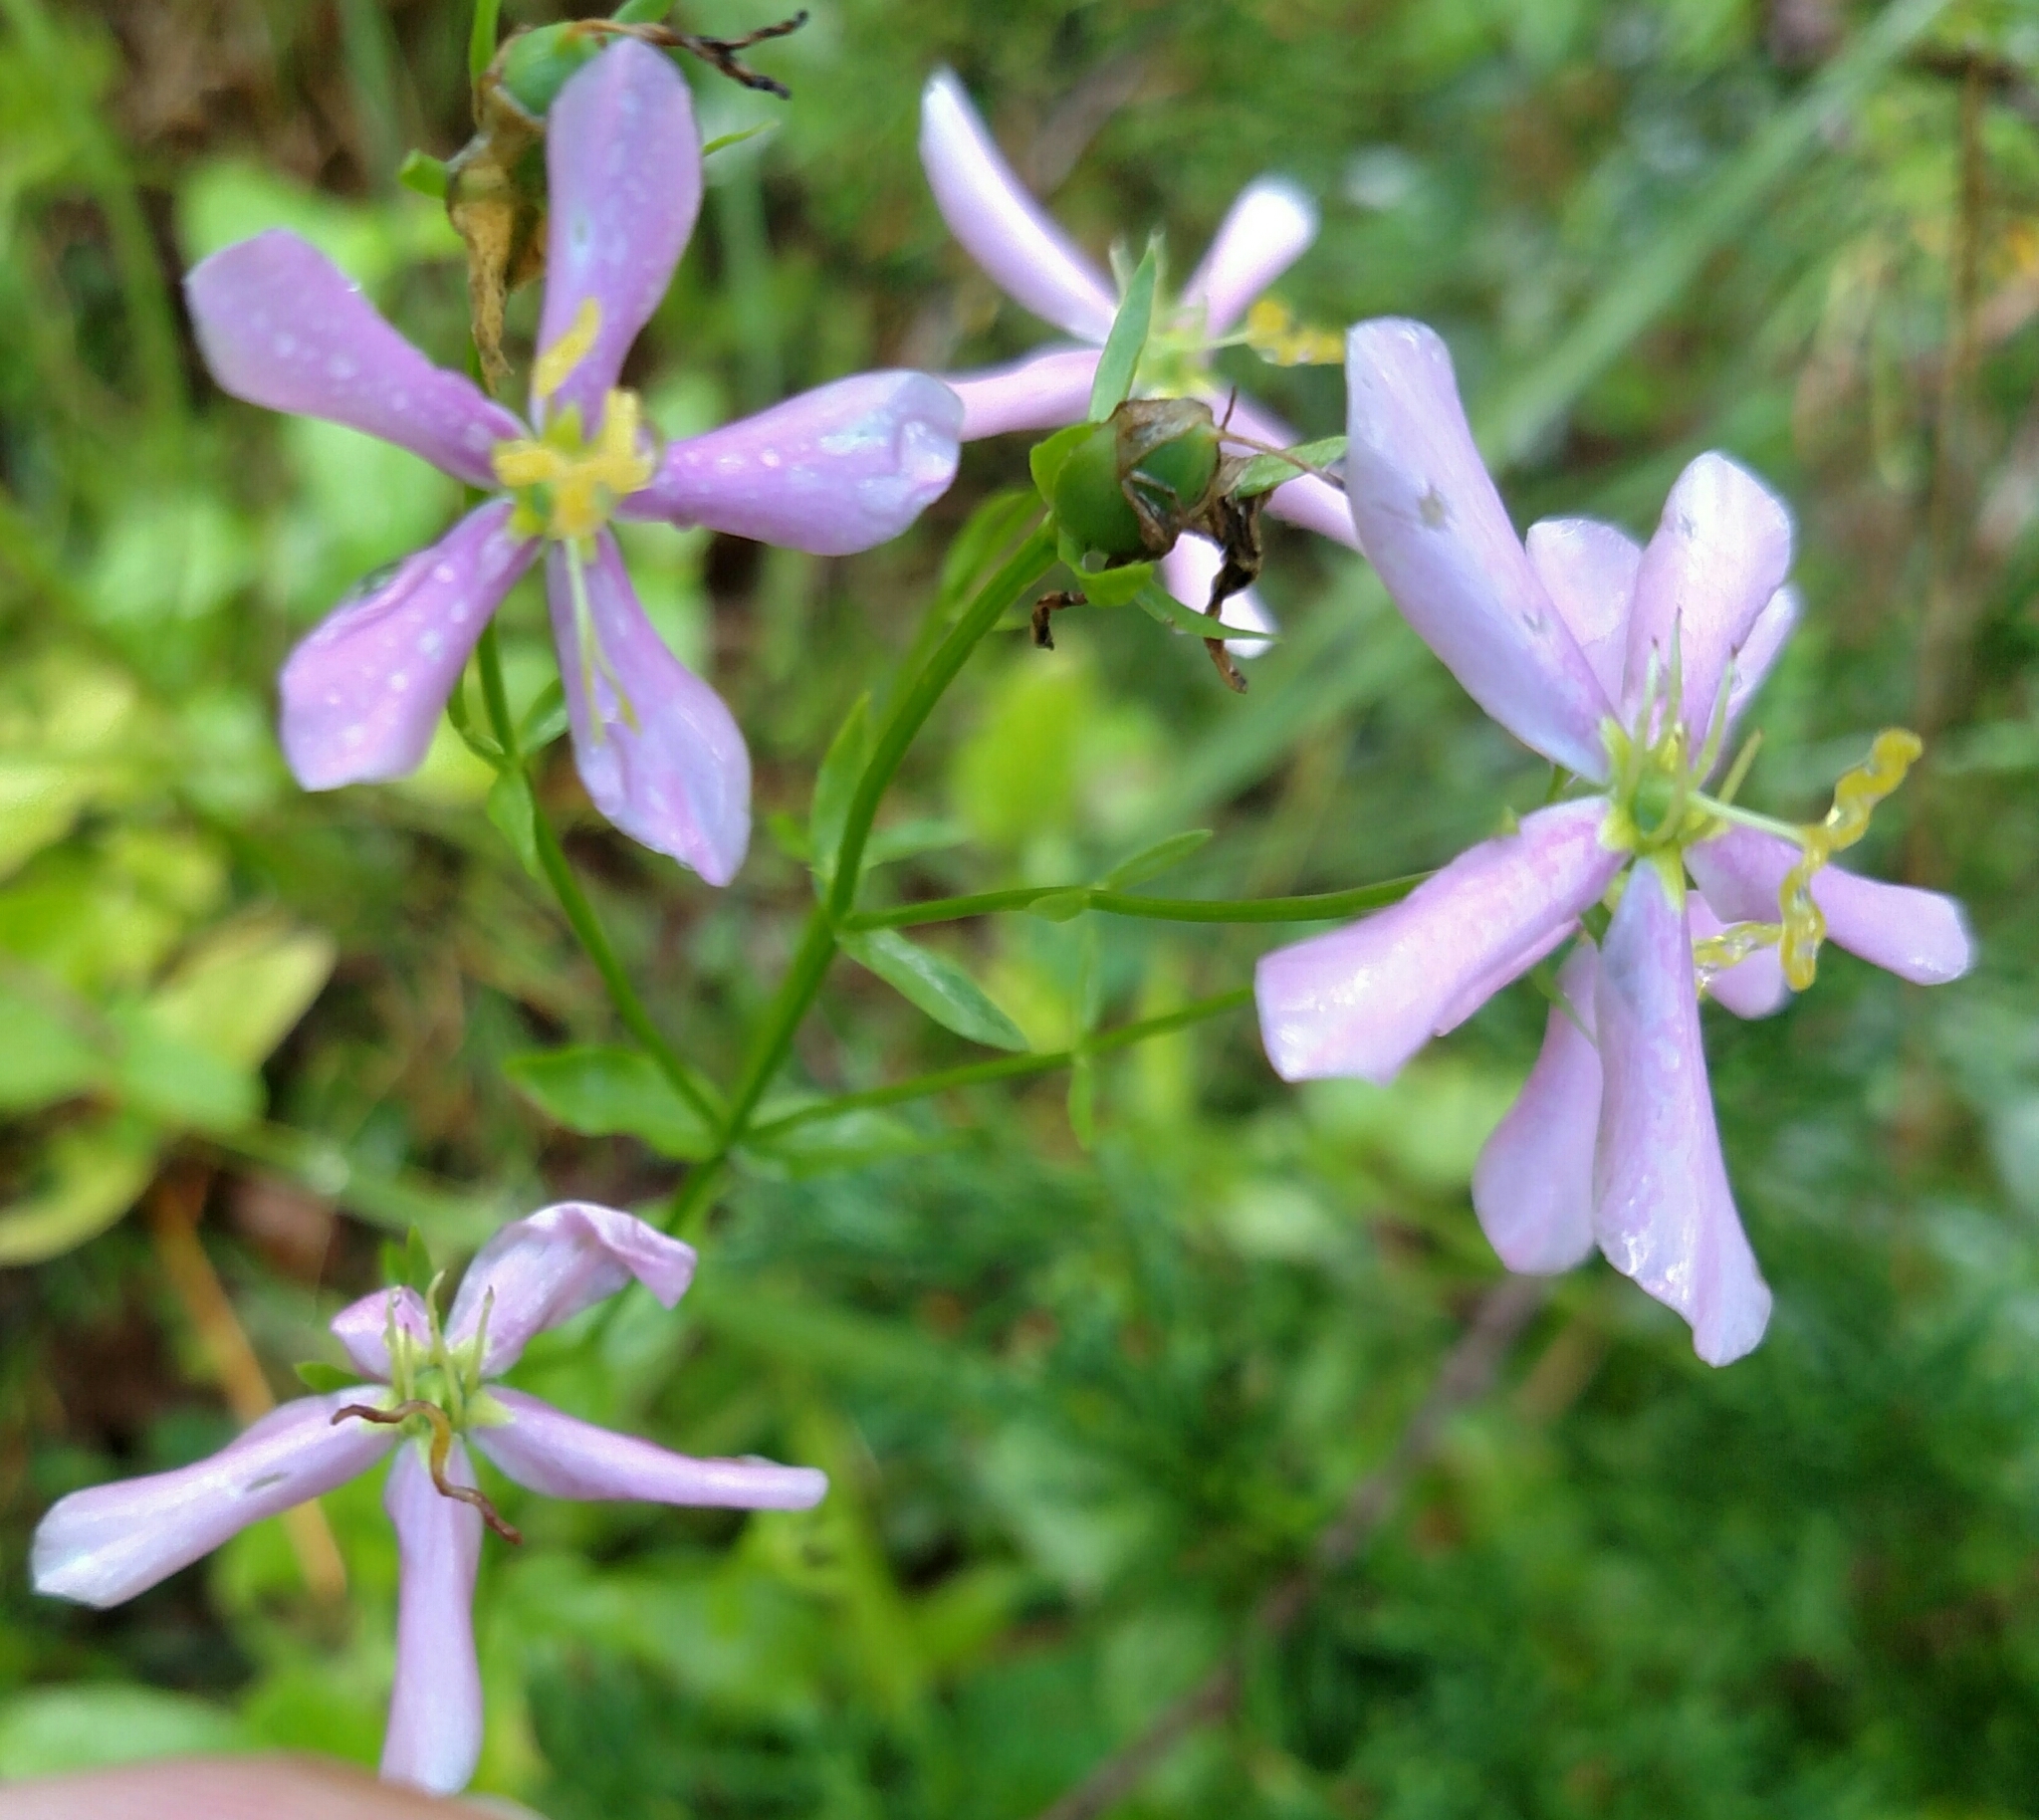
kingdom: Plantae
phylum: Tracheophyta
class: Magnoliopsida
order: Gentianales
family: Gentianaceae
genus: Sabatia
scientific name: Sabatia angularis
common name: Rose-pink
